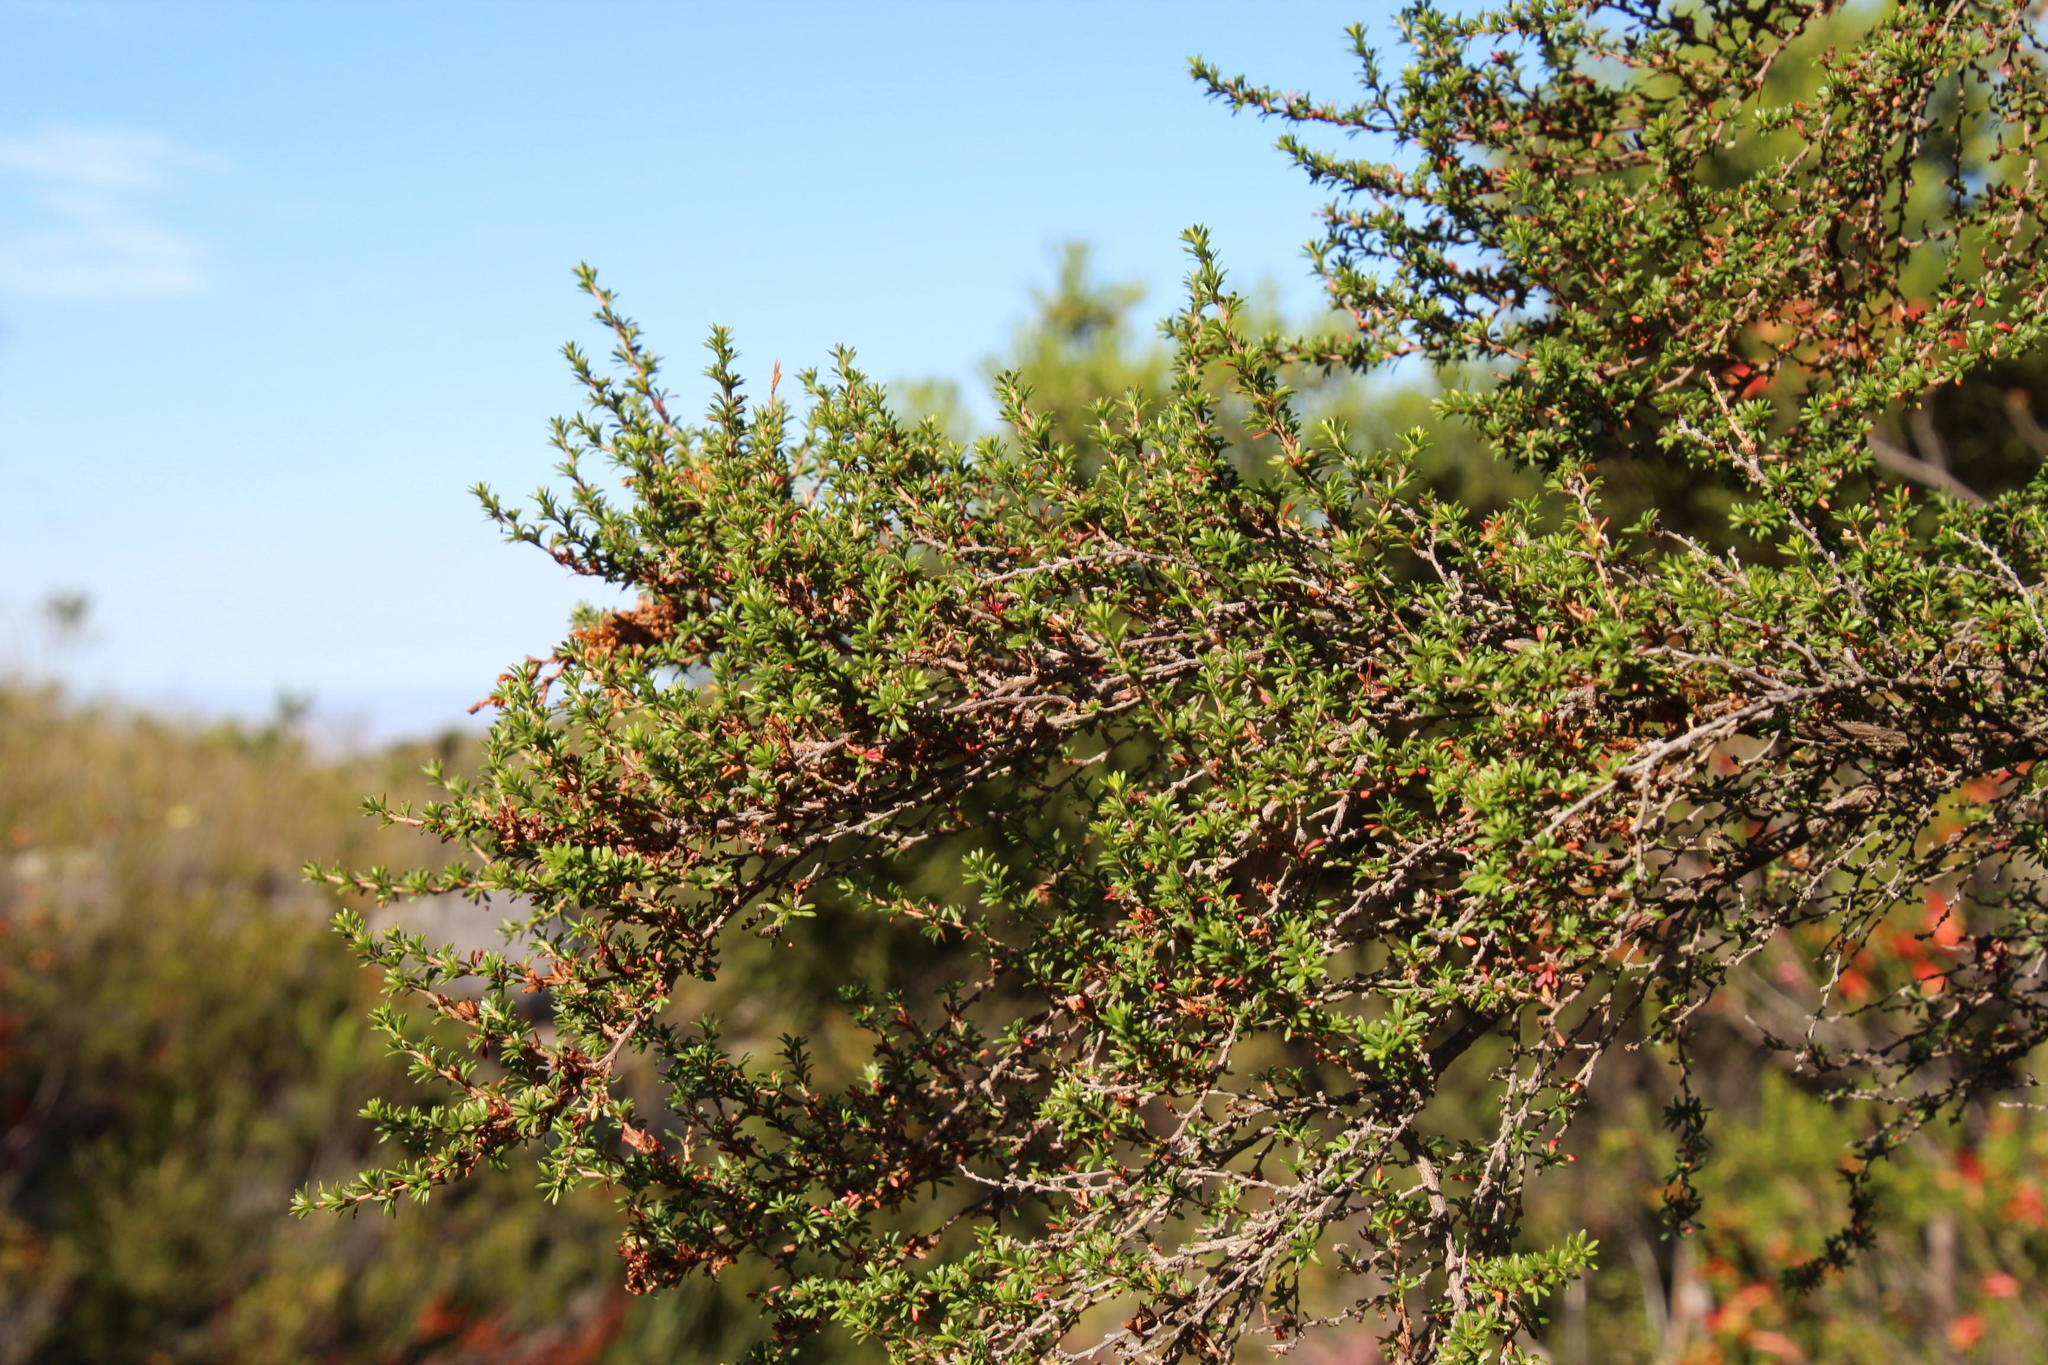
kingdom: Plantae
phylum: Tracheophyta
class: Magnoliopsida
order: Rosales
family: Rosaceae
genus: Cliffortia
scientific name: Cliffortia serpyllifolia
